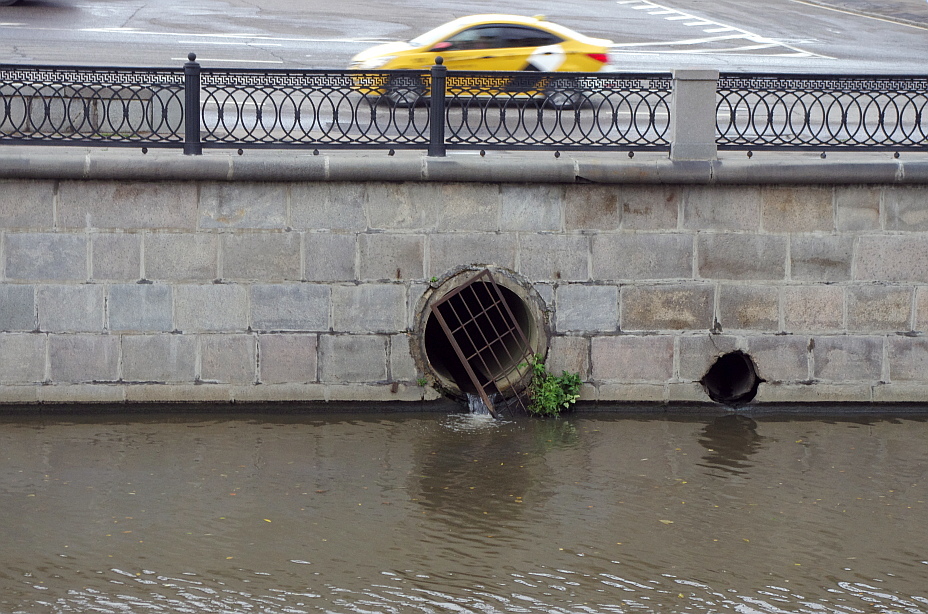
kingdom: Plantae
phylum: Tracheophyta
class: Magnoliopsida
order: Solanales
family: Solanaceae
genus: Solanum
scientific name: Solanum lycopersicum
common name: Garden tomato
